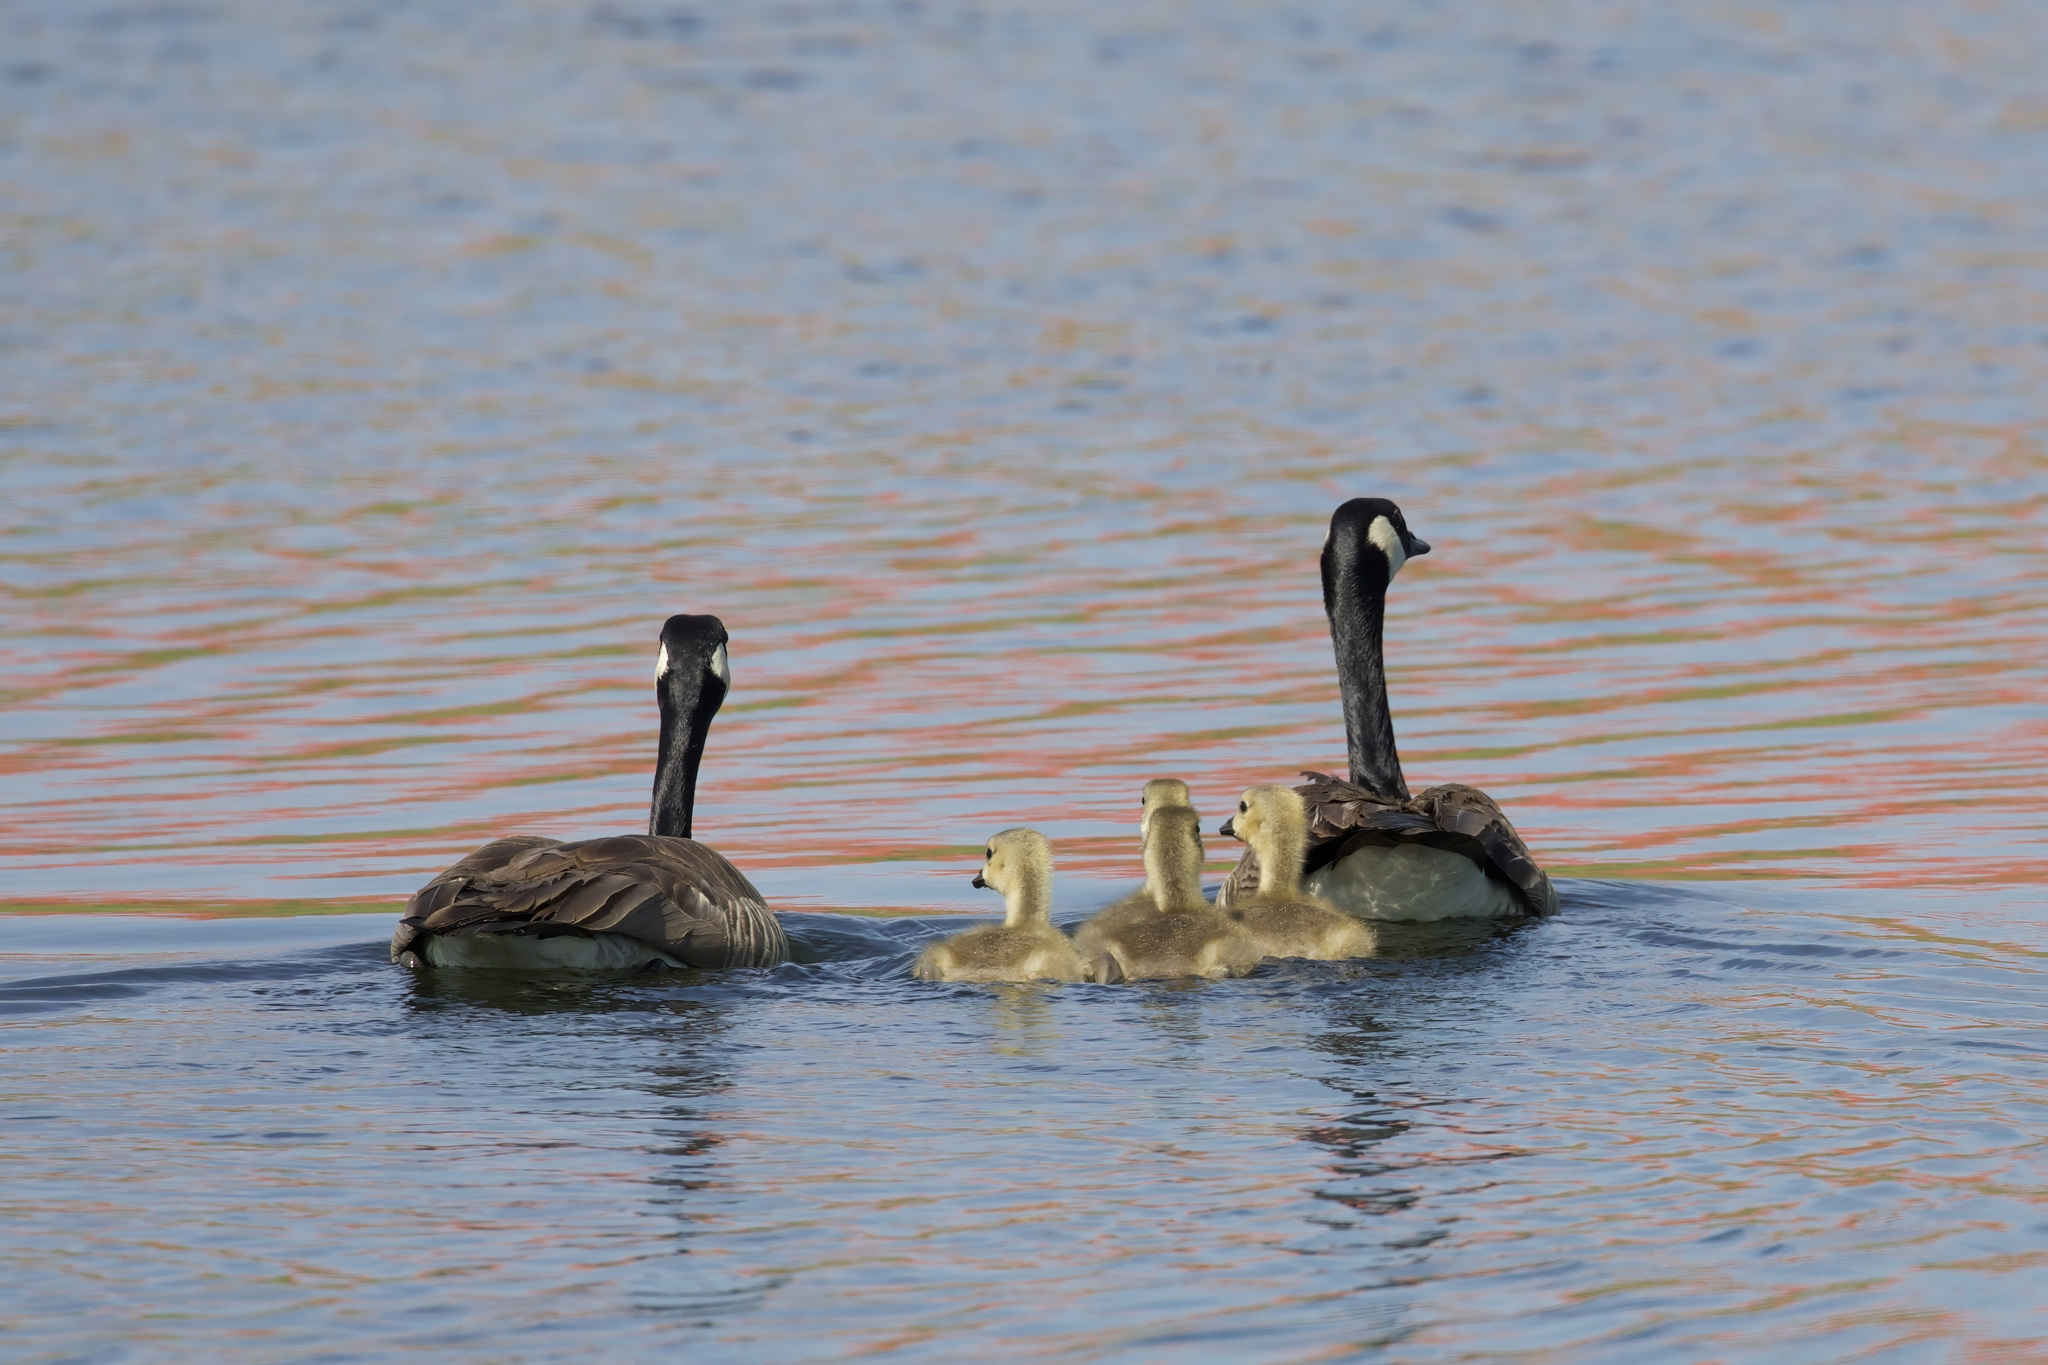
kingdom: Animalia
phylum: Chordata
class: Aves
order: Anseriformes
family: Anatidae
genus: Branta
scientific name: Branta canadensis
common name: Canada goose
